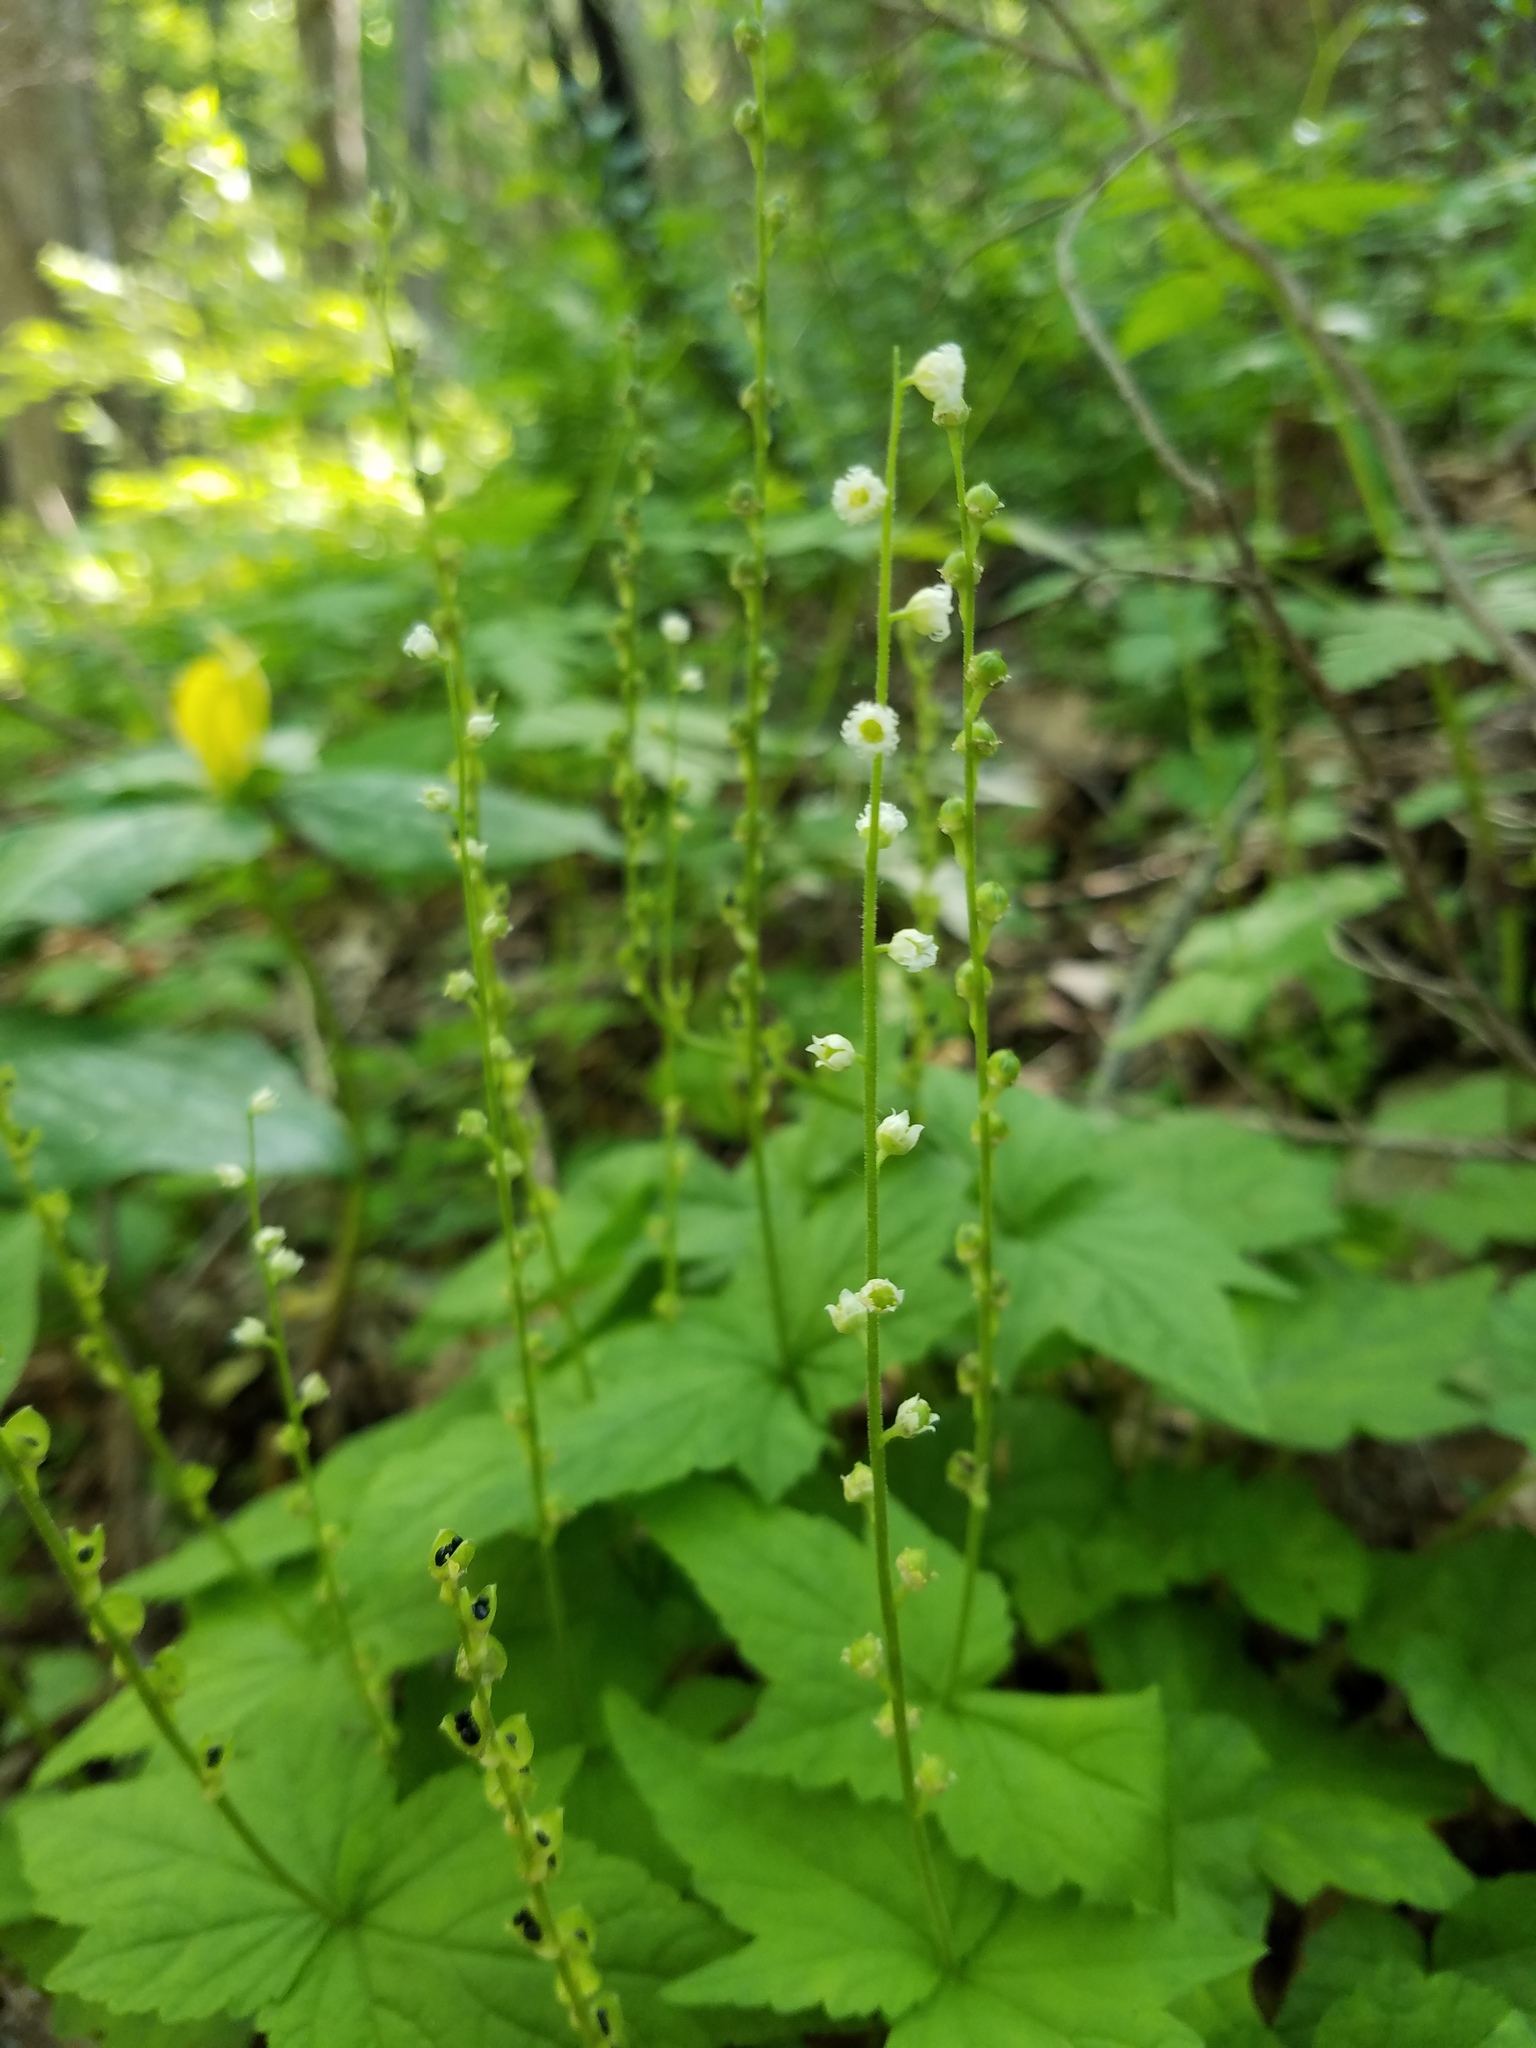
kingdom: Plantae
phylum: Tracheophyta
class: Magnoliopsida
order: Saxifragales
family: Saxifragaceae
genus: Mitella
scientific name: Mitella diphylla
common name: Coolwort
